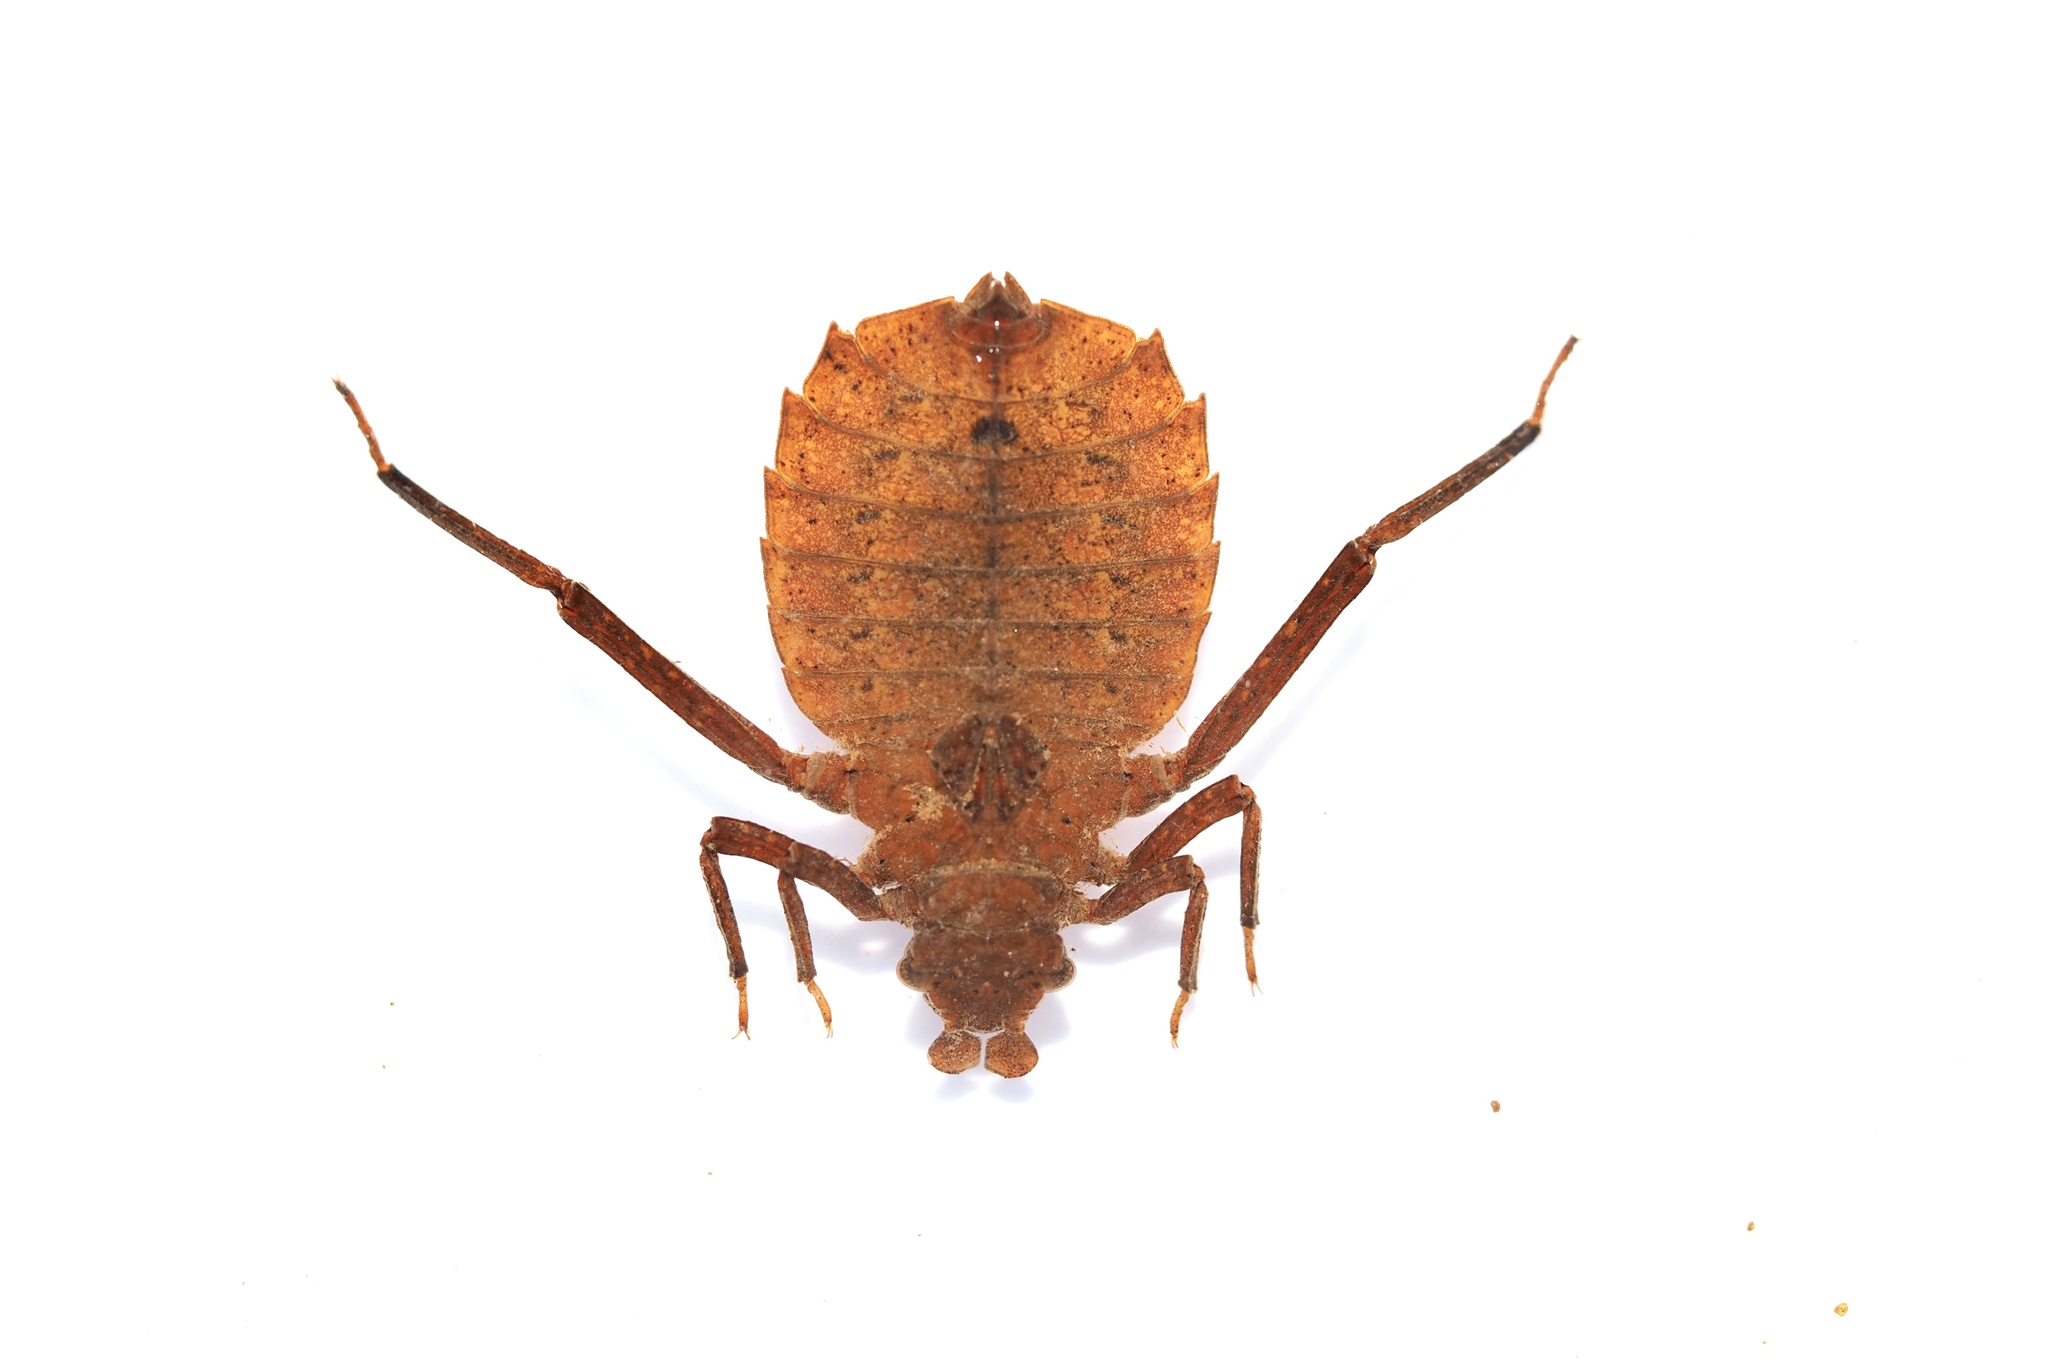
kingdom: Animalia
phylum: Arthropoda
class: Insecta
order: Odonata
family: Gomphidae
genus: Sieboldius
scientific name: Sieboldius albardae
